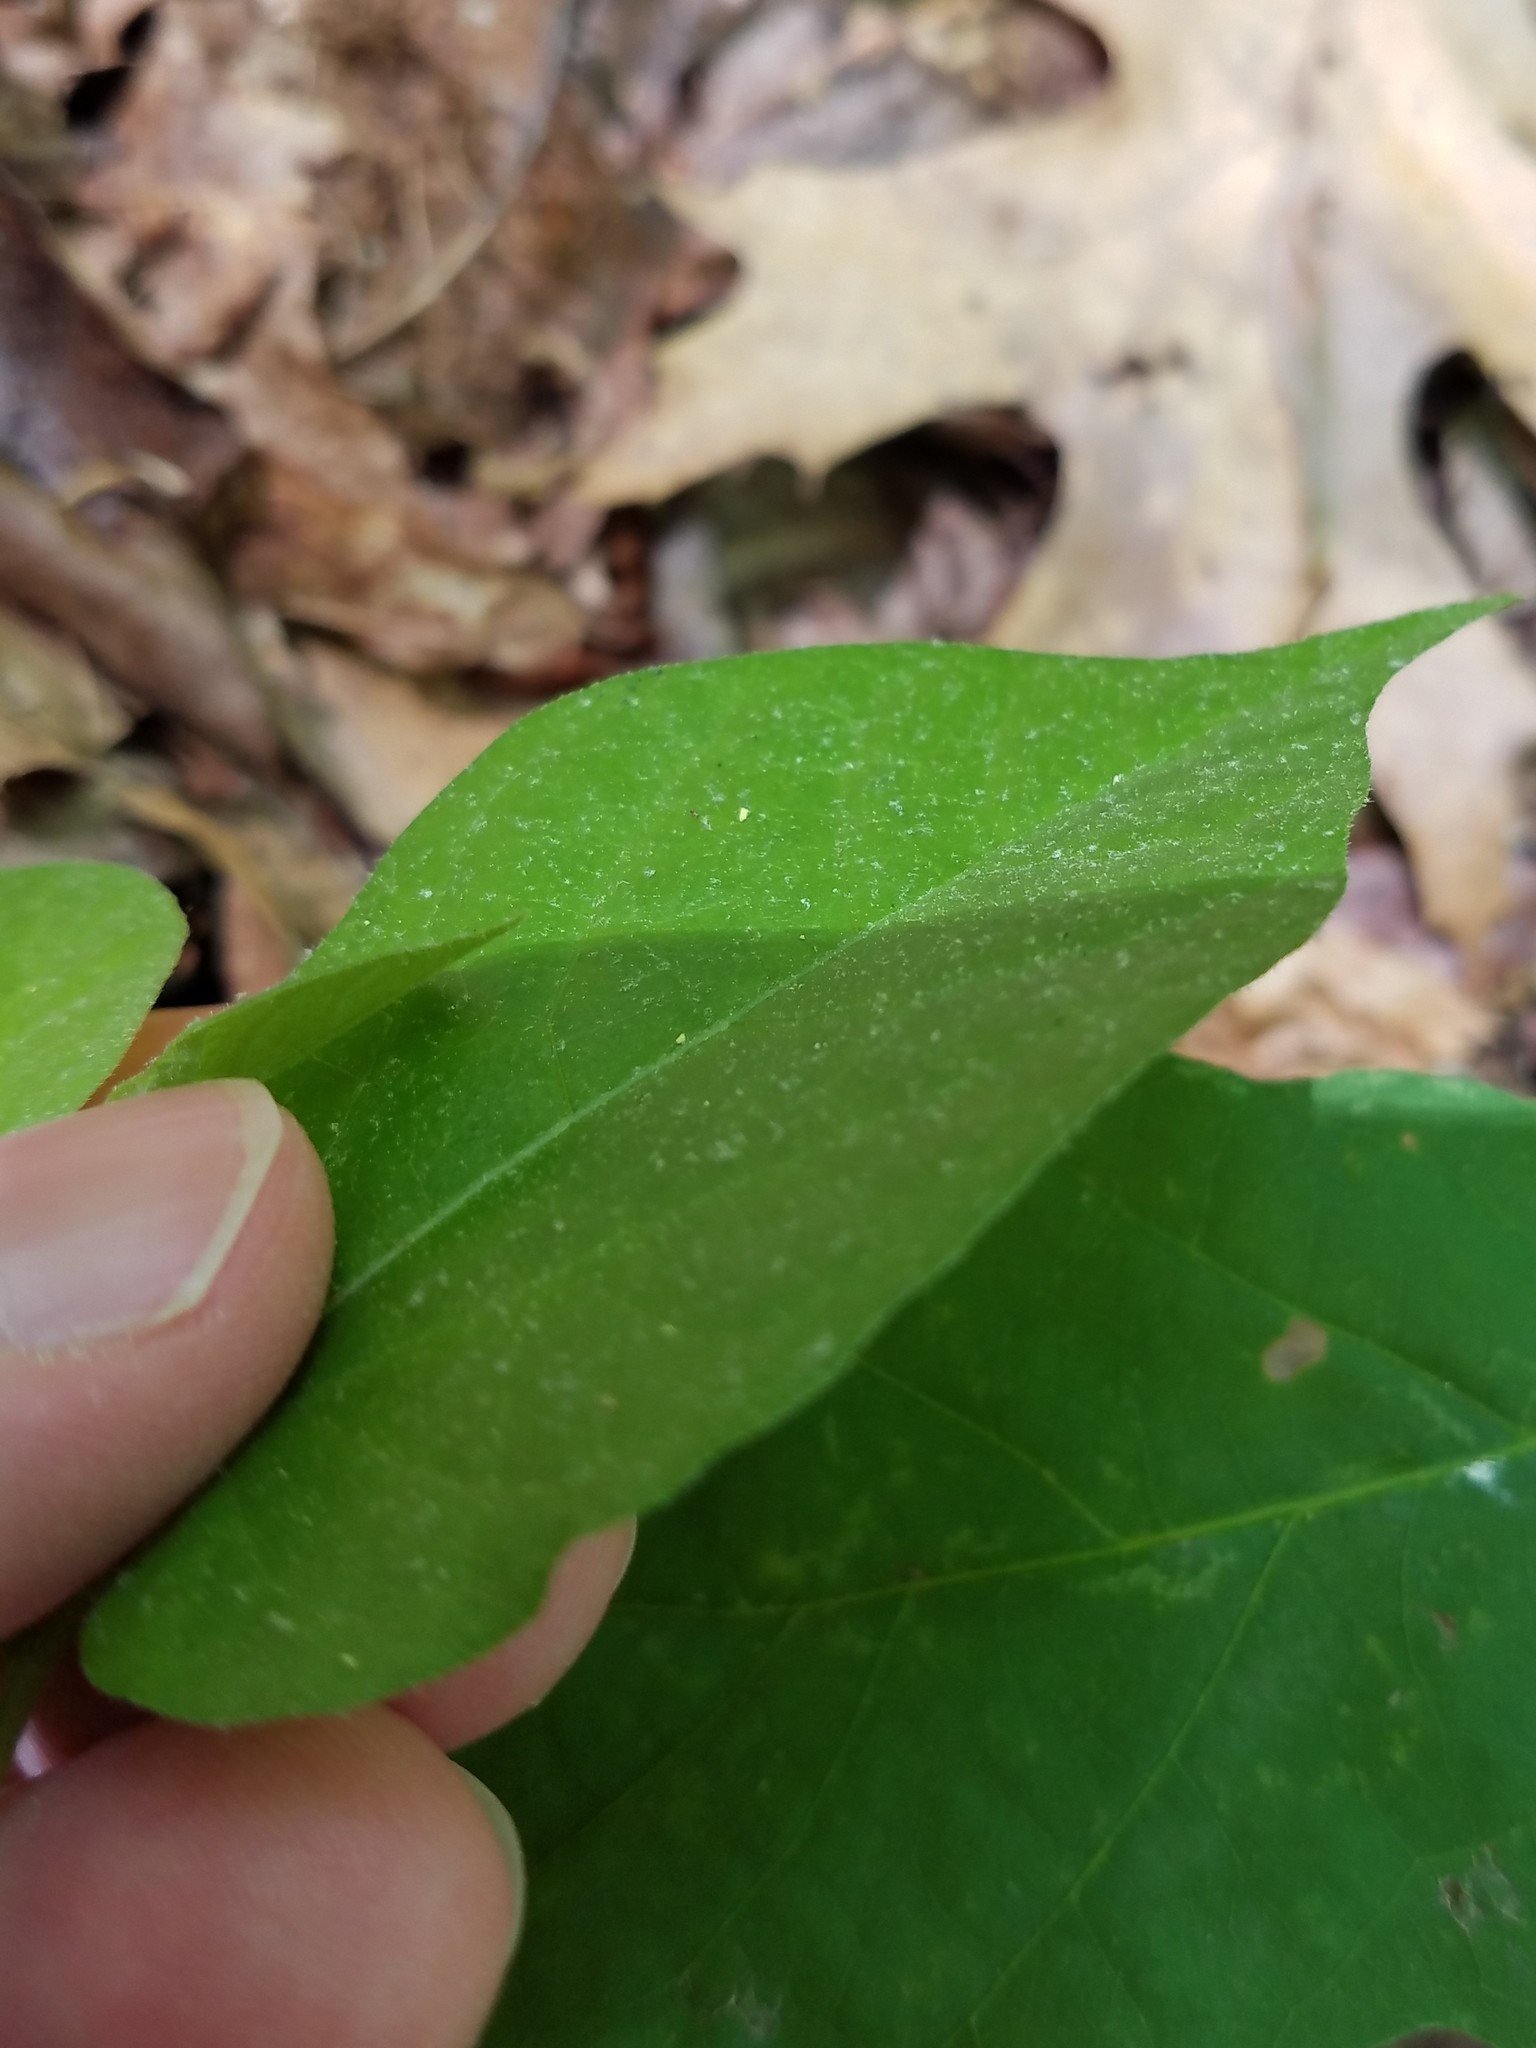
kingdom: Plantae
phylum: Tracheophyta
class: Magnoliopsida
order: Piperales
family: Aristolochiaceae
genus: Endodeca
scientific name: Endodeca serpentaria
